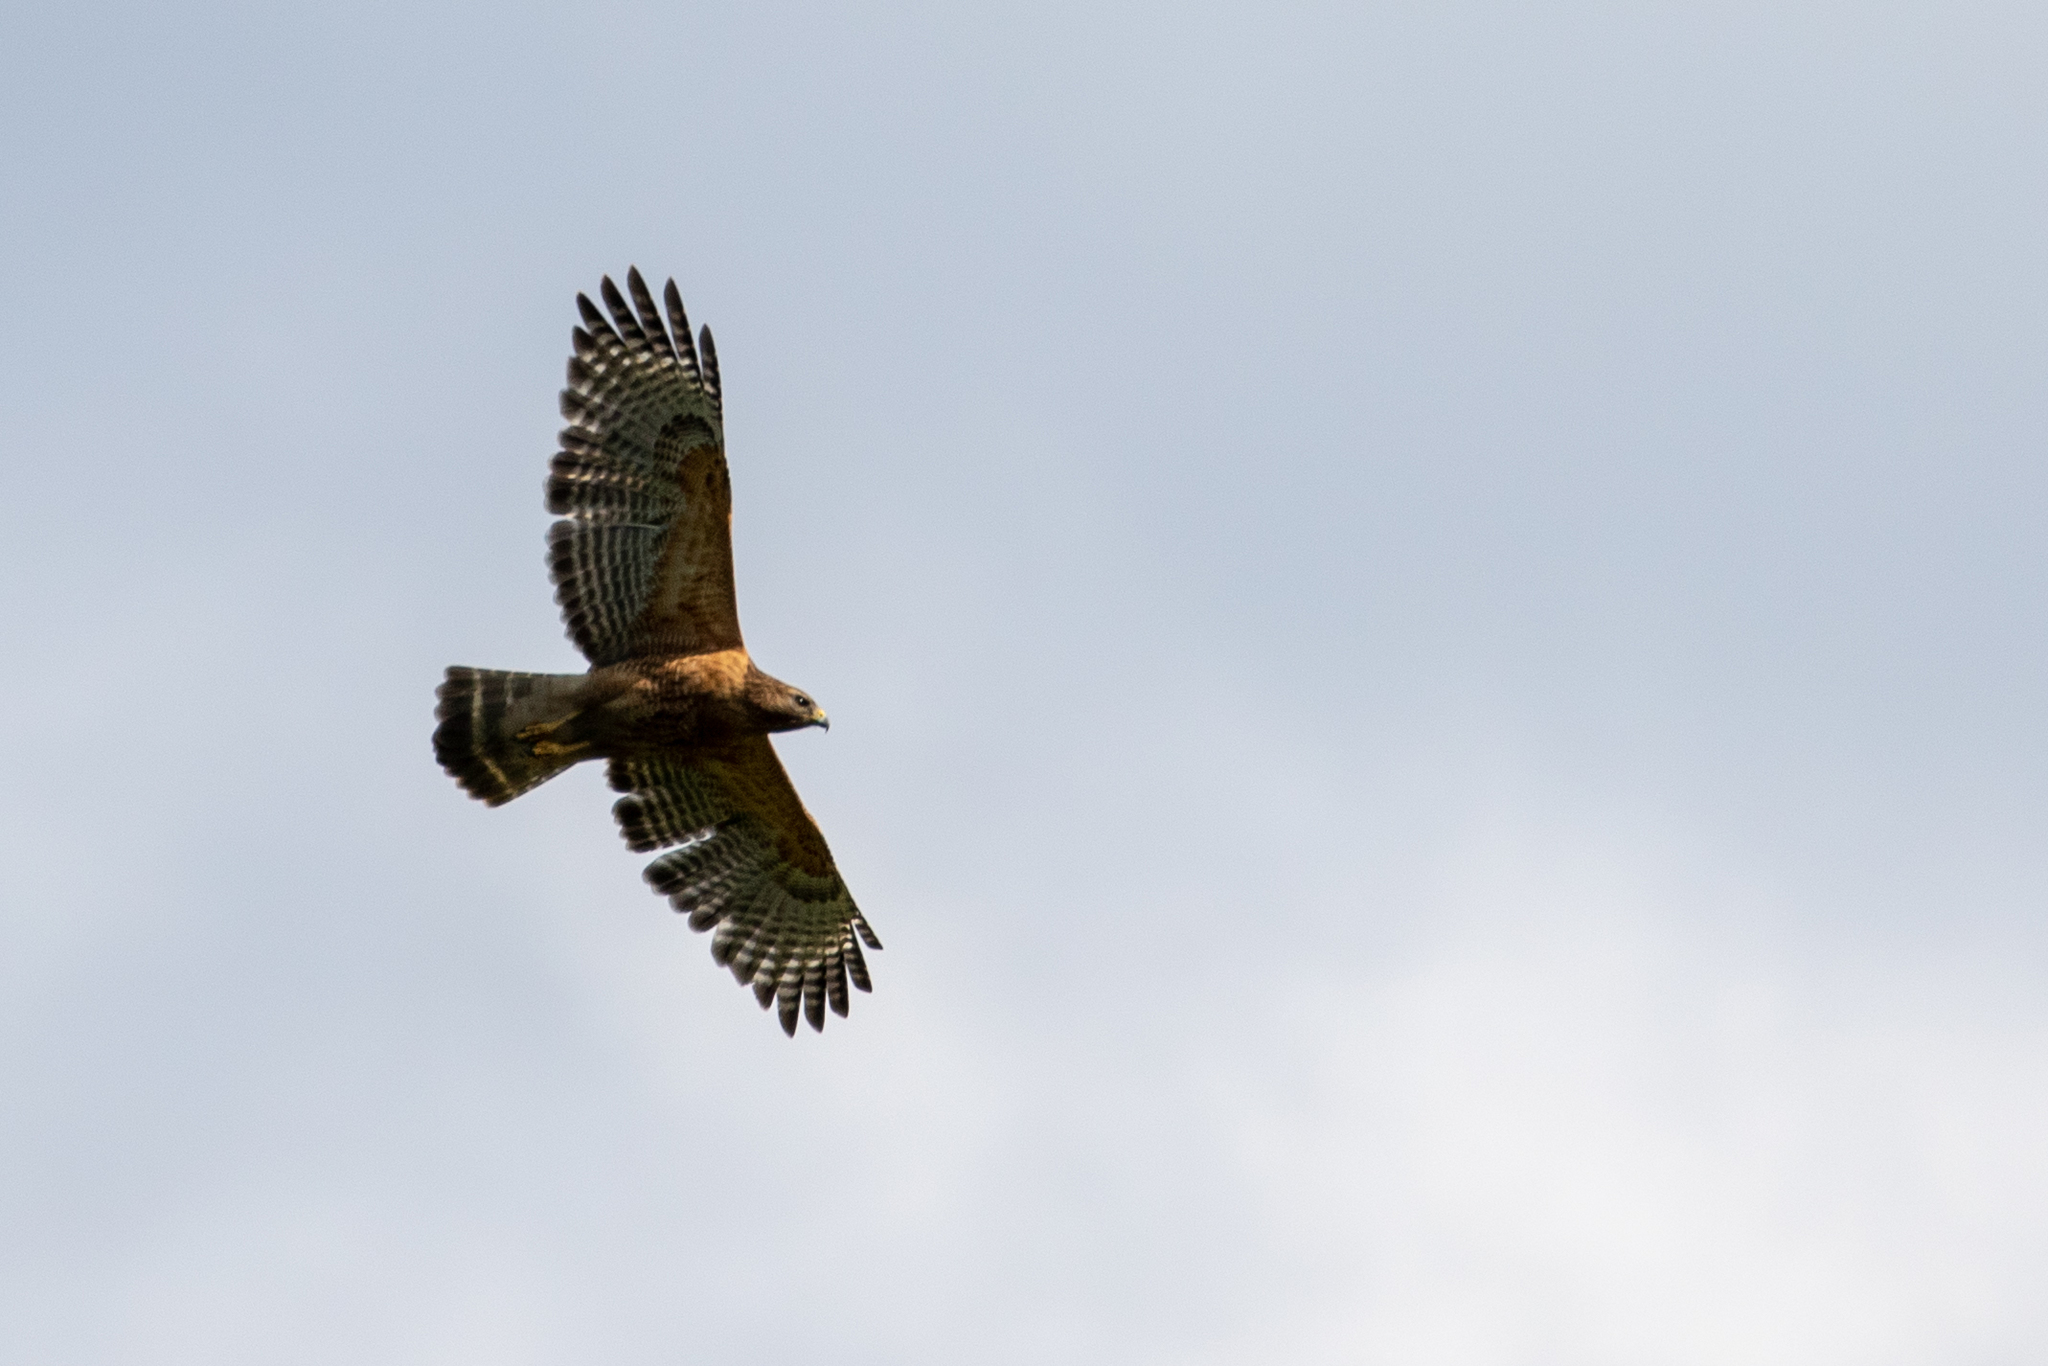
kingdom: Animalia
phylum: Chordata
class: Aves
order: Accipitriformes
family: Accipitridae
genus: Buteo
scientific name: Buteo lineatus
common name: Red-shouldered hawk
